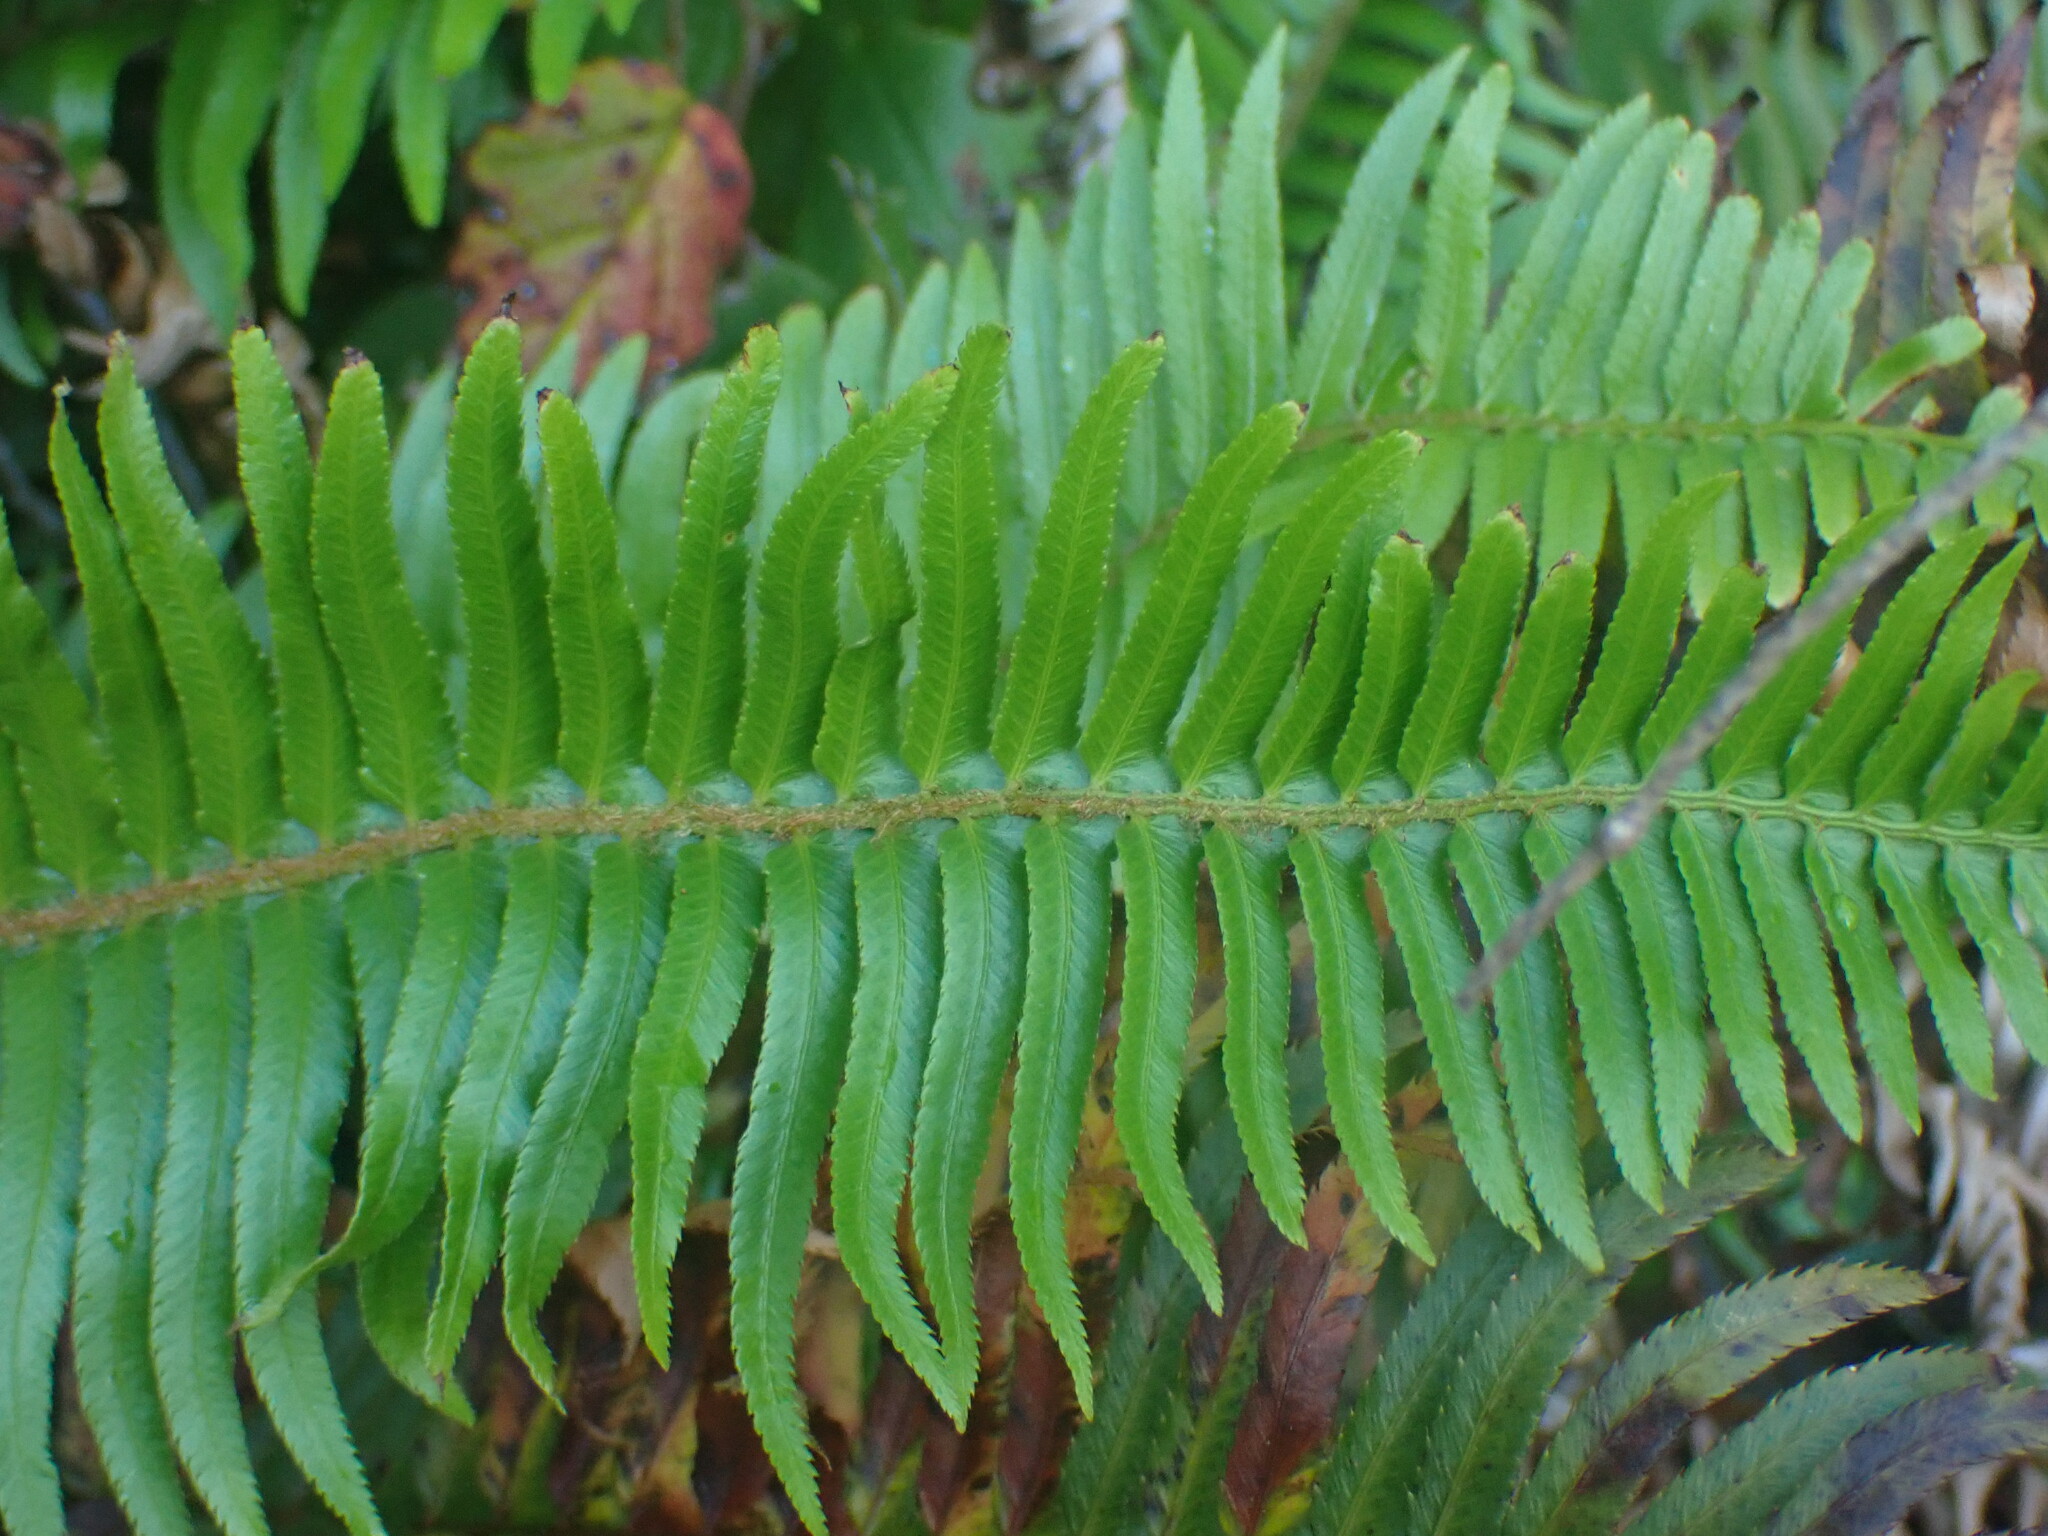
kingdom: Plantae
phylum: Tracheophyta
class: Polypodiopsida
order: Polypodiales
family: Dryopteridaceae
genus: Polystichum
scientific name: Polystichum munitum
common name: Western sword-fern
